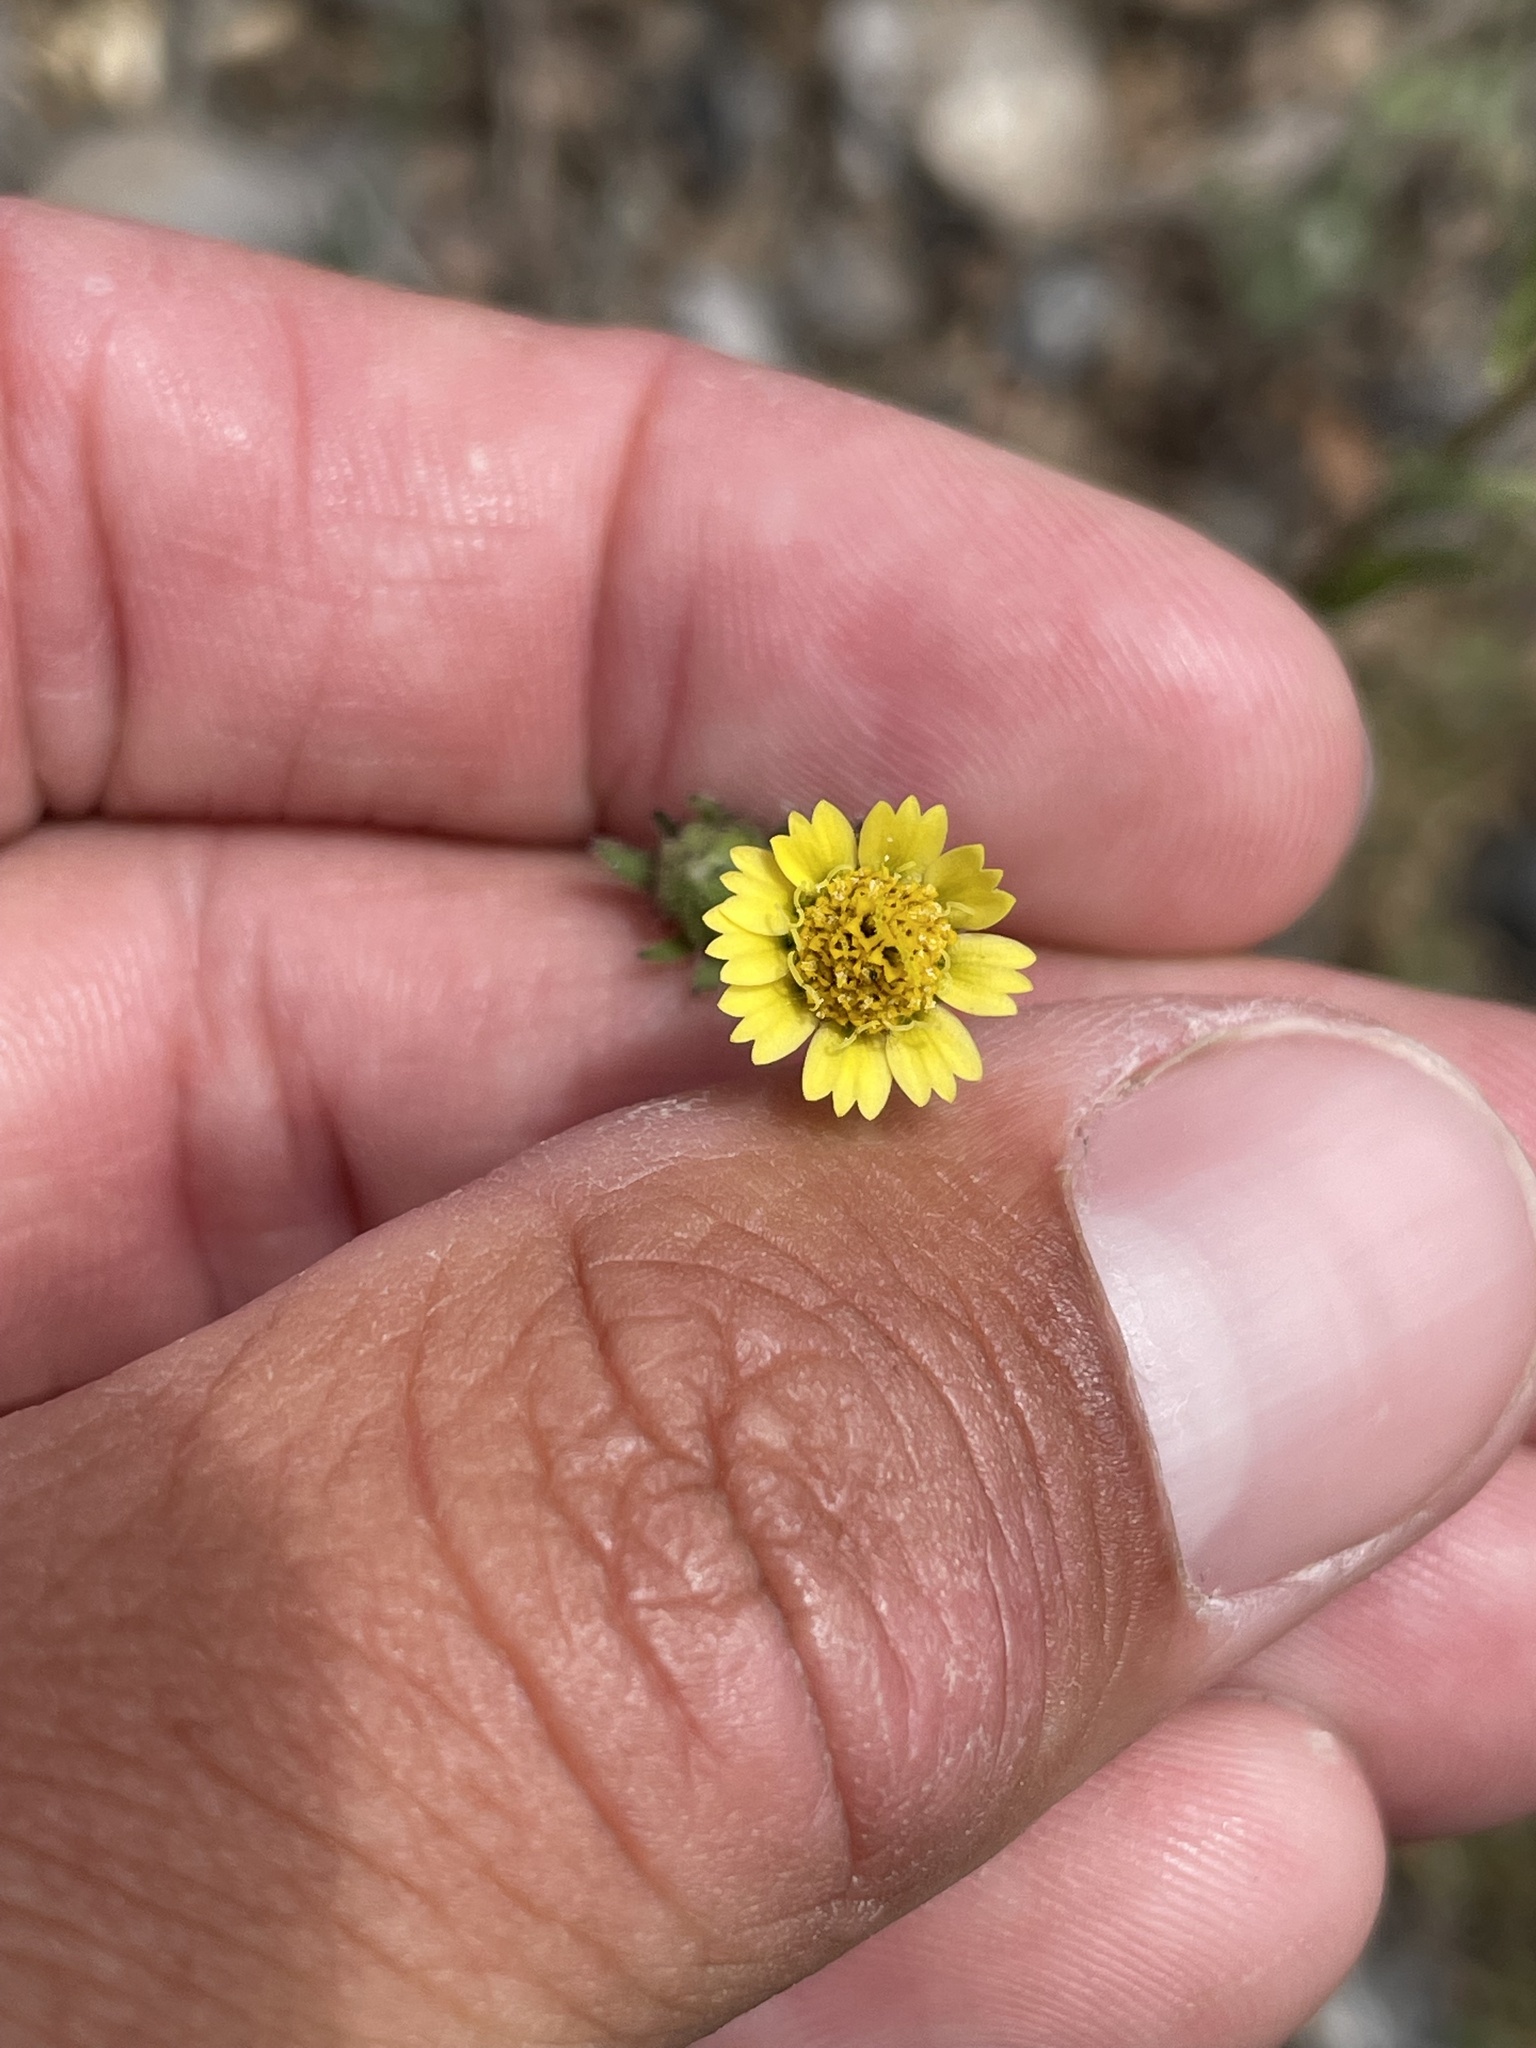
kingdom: Plantae
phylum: Tracheophyta
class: Magnoliopsida
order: Asterales
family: Asteraceae
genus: Layia
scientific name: Layia hieracioides
